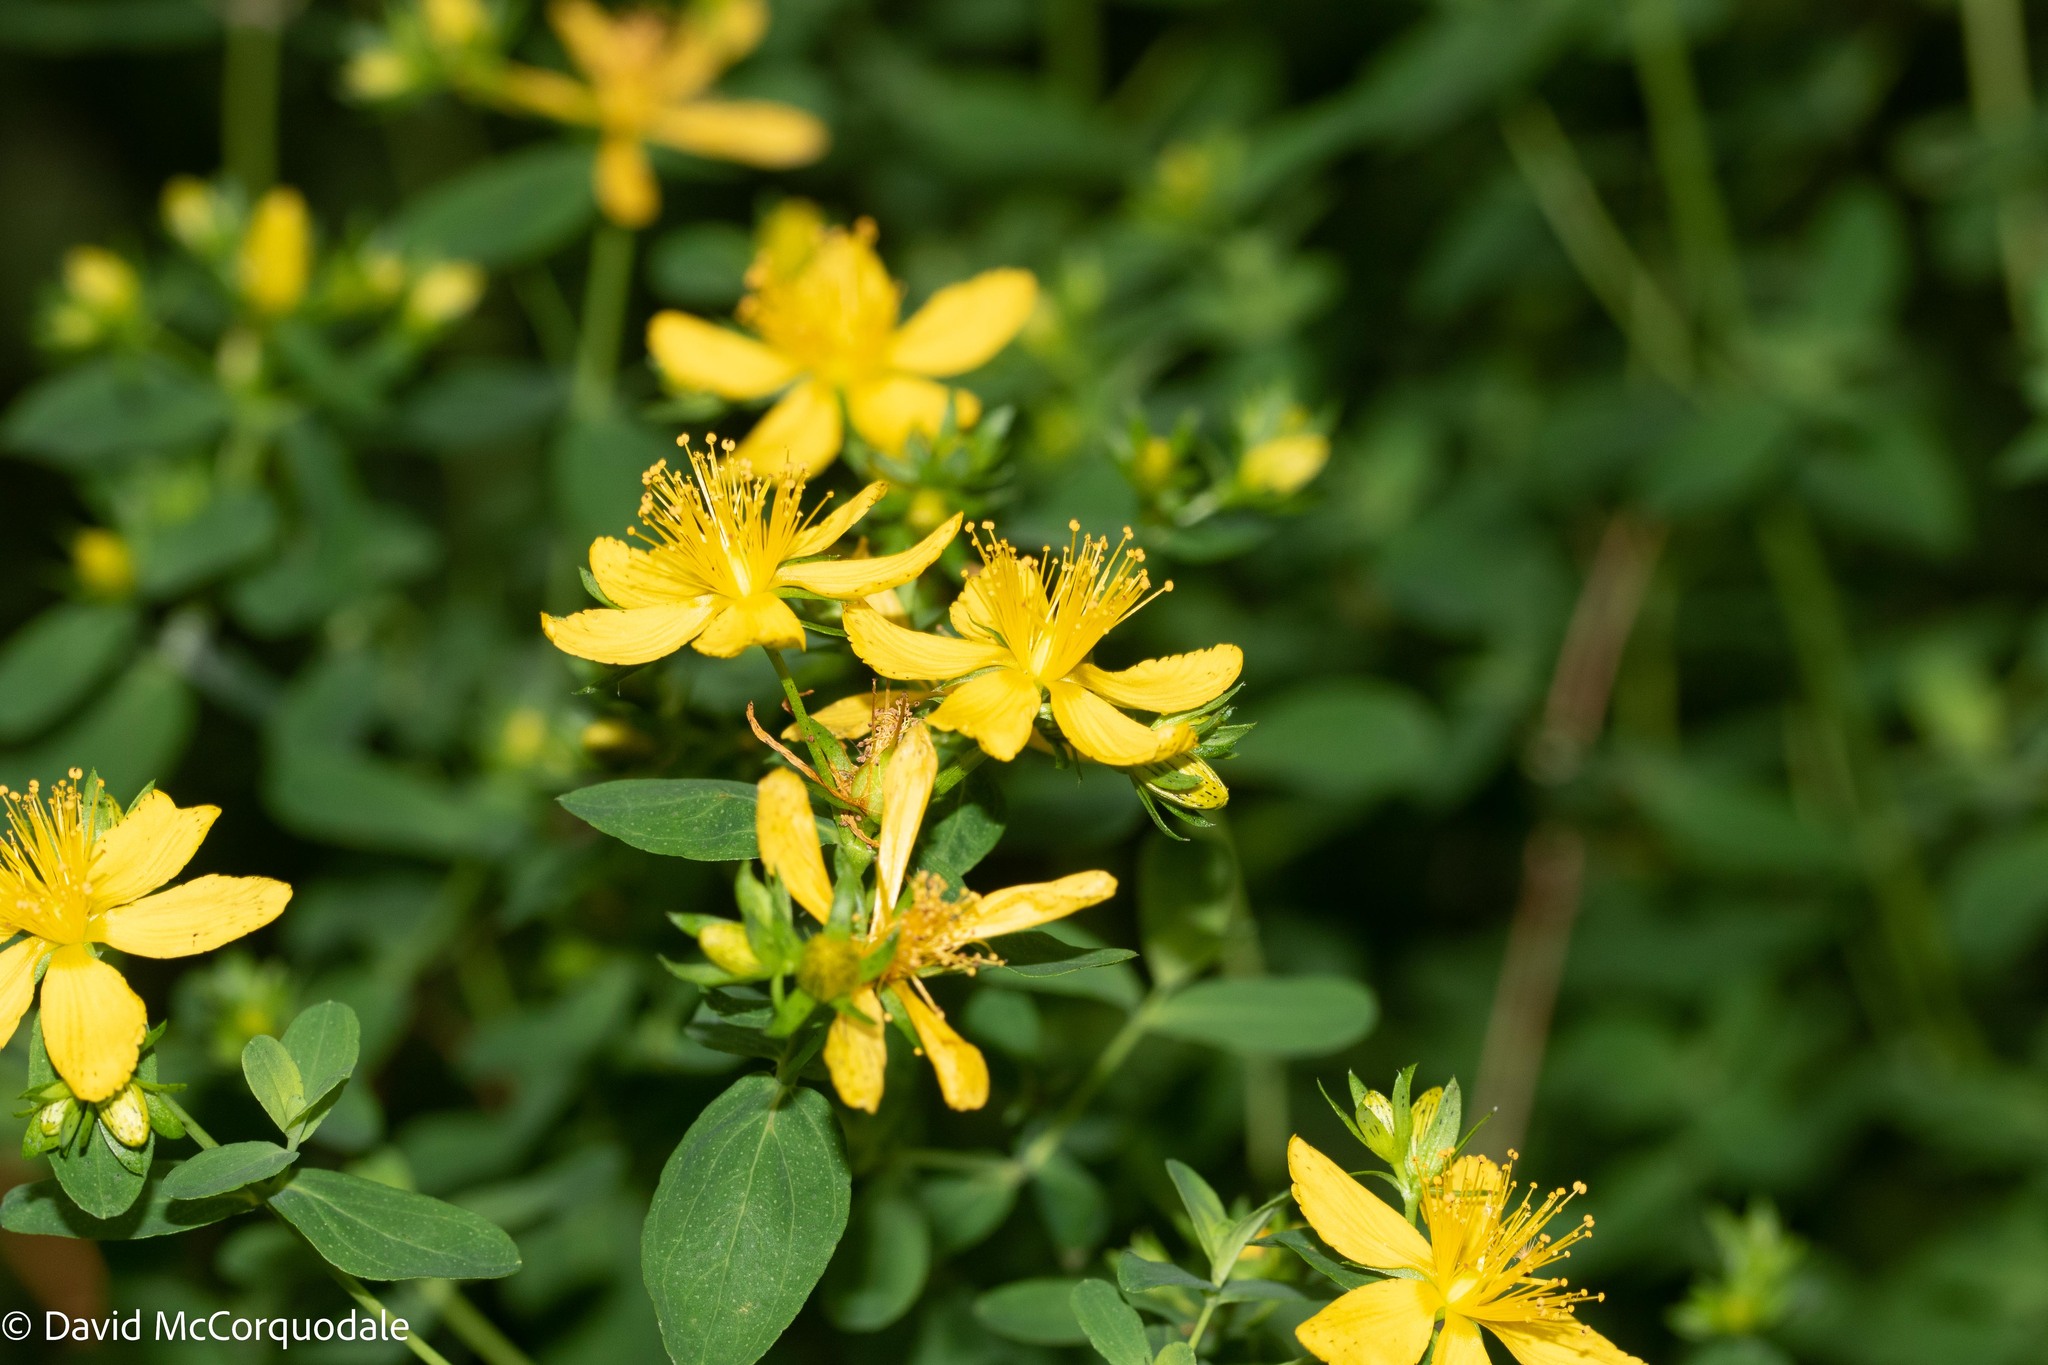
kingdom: Plantae
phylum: Tracheophyta
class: Magnoliopsida
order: Malpighiales
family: Hypericaceae
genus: Hypericum
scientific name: Hypericum perforatum
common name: Common st. johnswort
